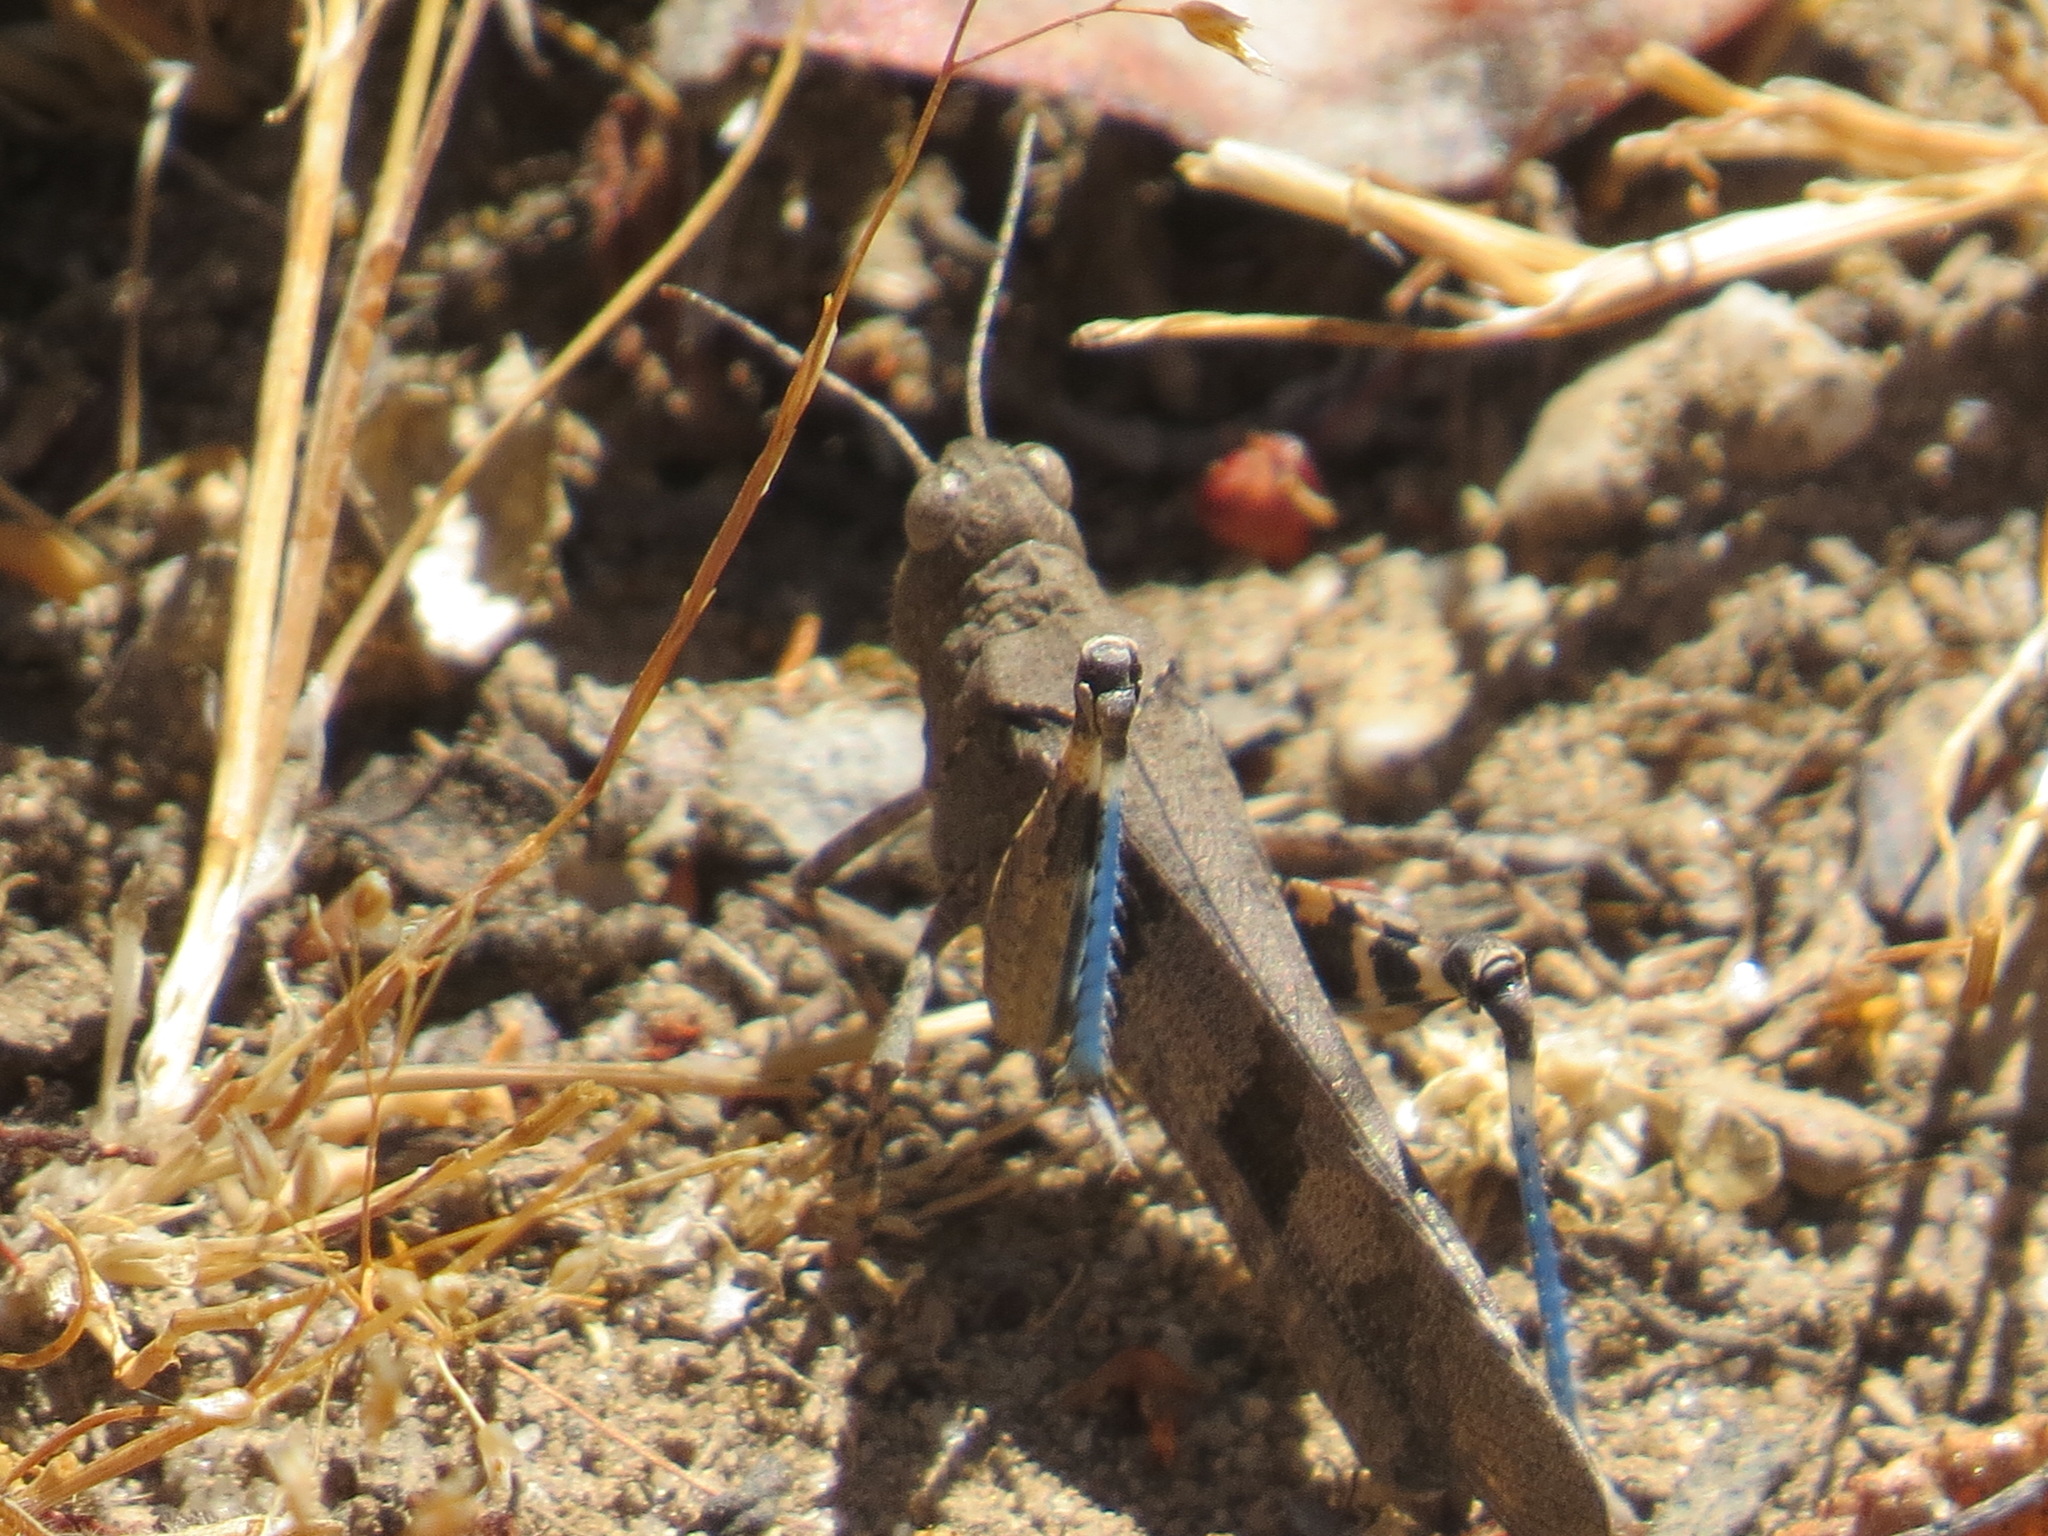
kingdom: Animalia
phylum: Arthropoda
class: Insecta
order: Orthoptera
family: Acrididae
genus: Trimerotropis
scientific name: Trimerotropis fontana
